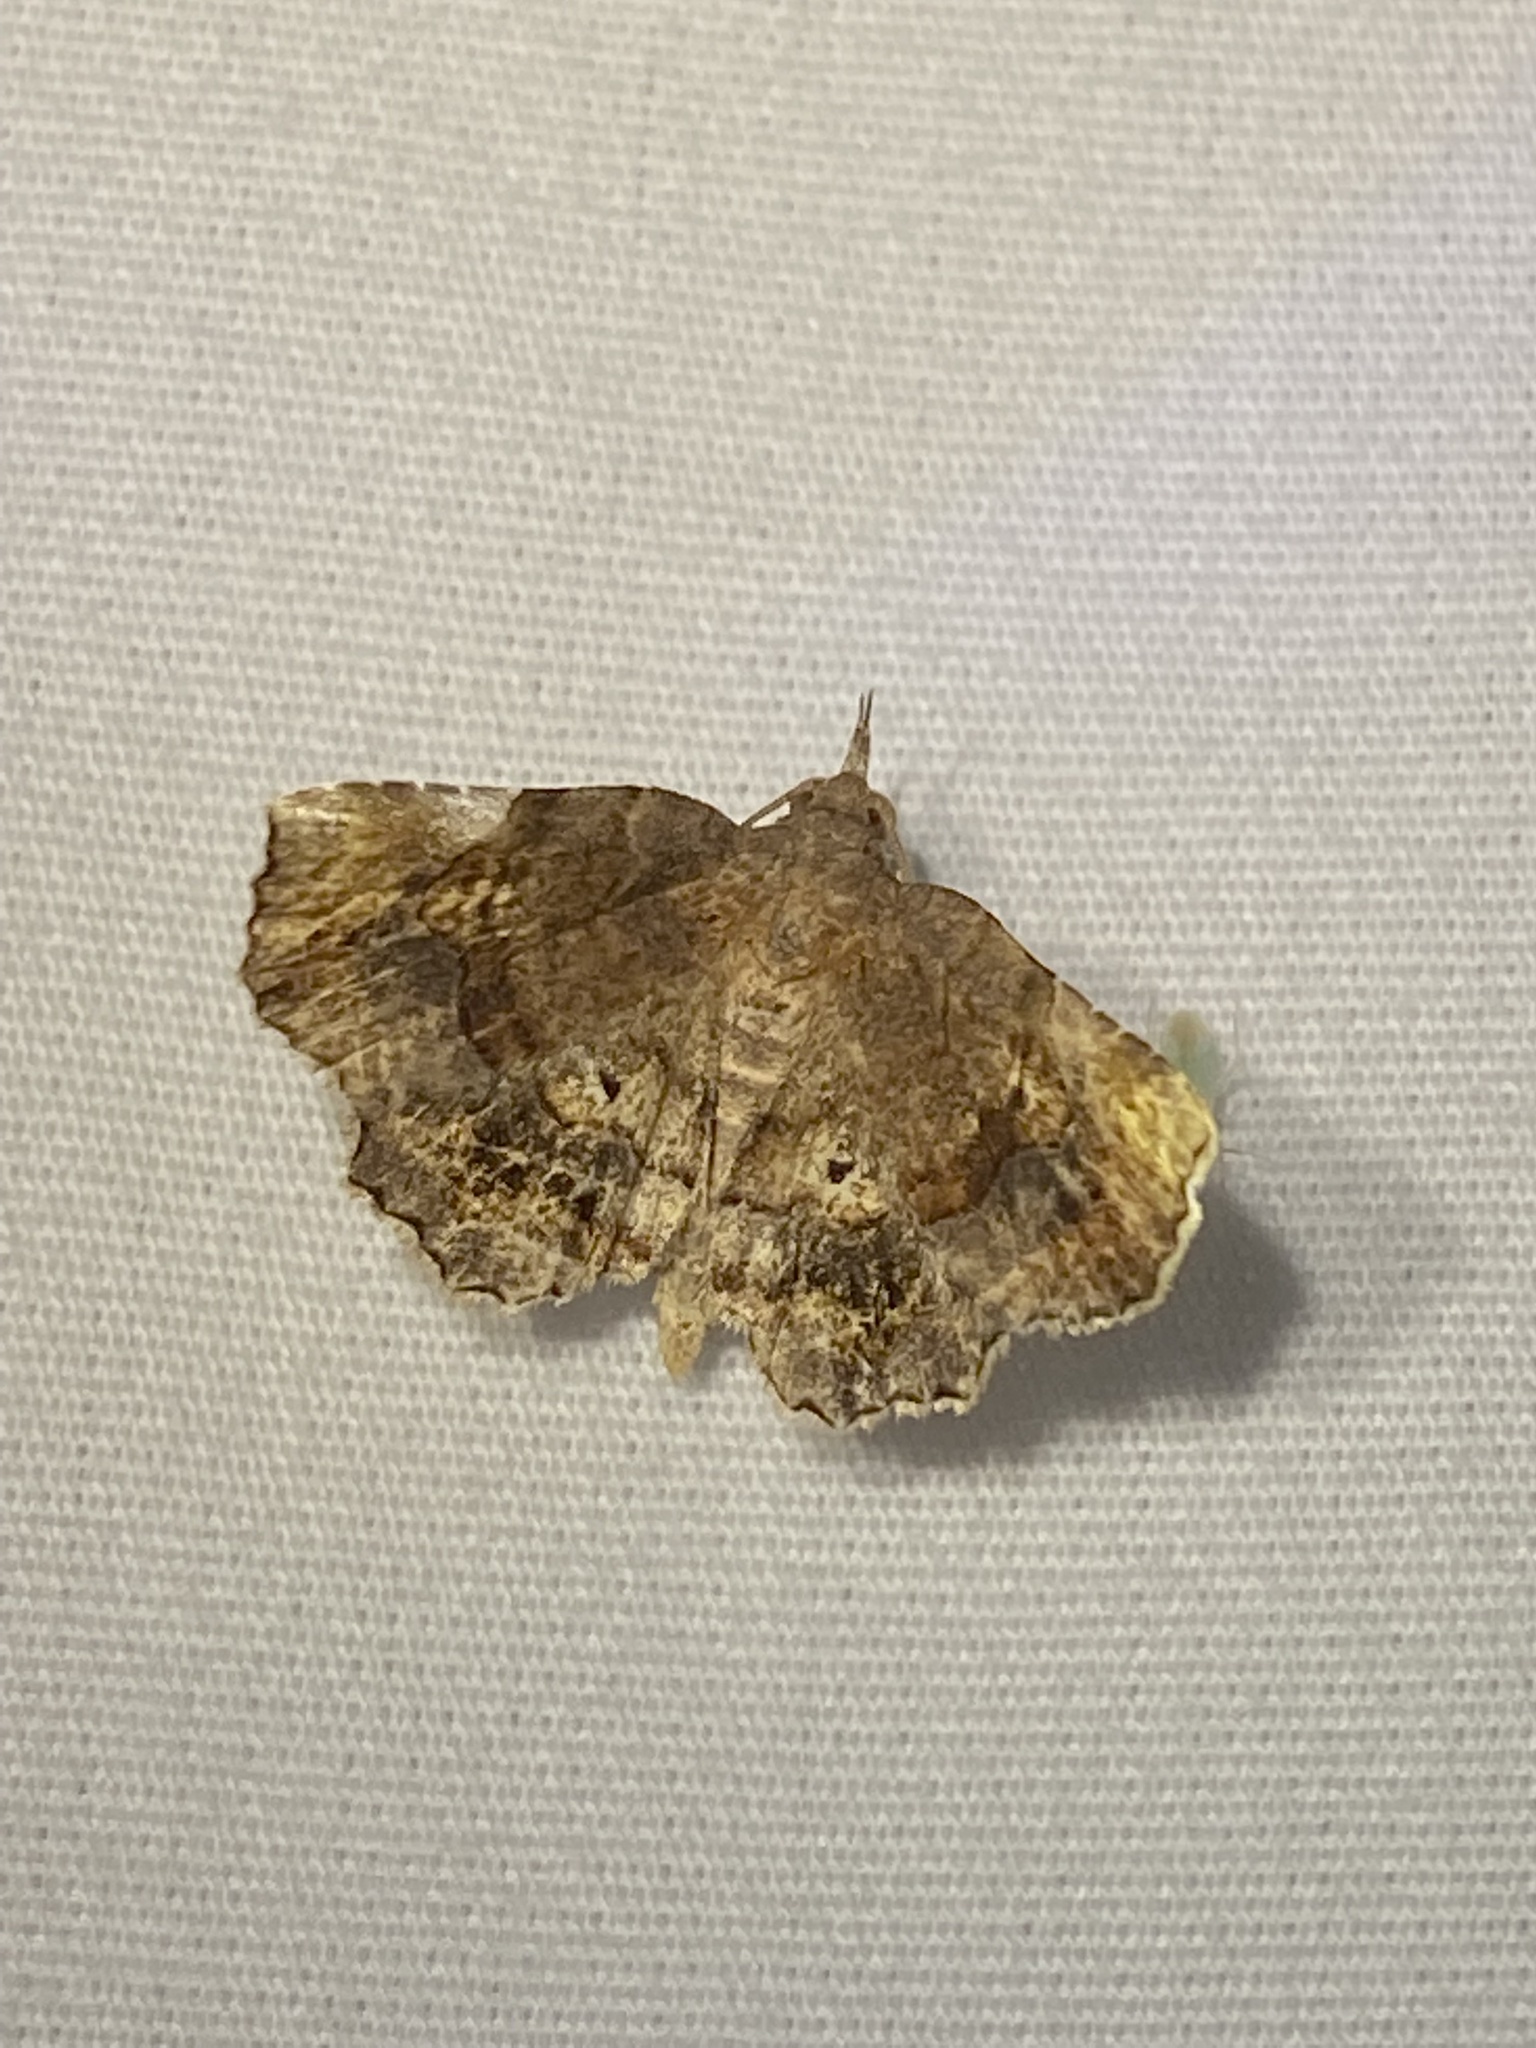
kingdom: Animalia
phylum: Arthropoda
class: Insecta
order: Lepidoptera
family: Erebidae
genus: Pangrapta
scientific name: Pangrapta decoralis
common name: Decorated owlet
